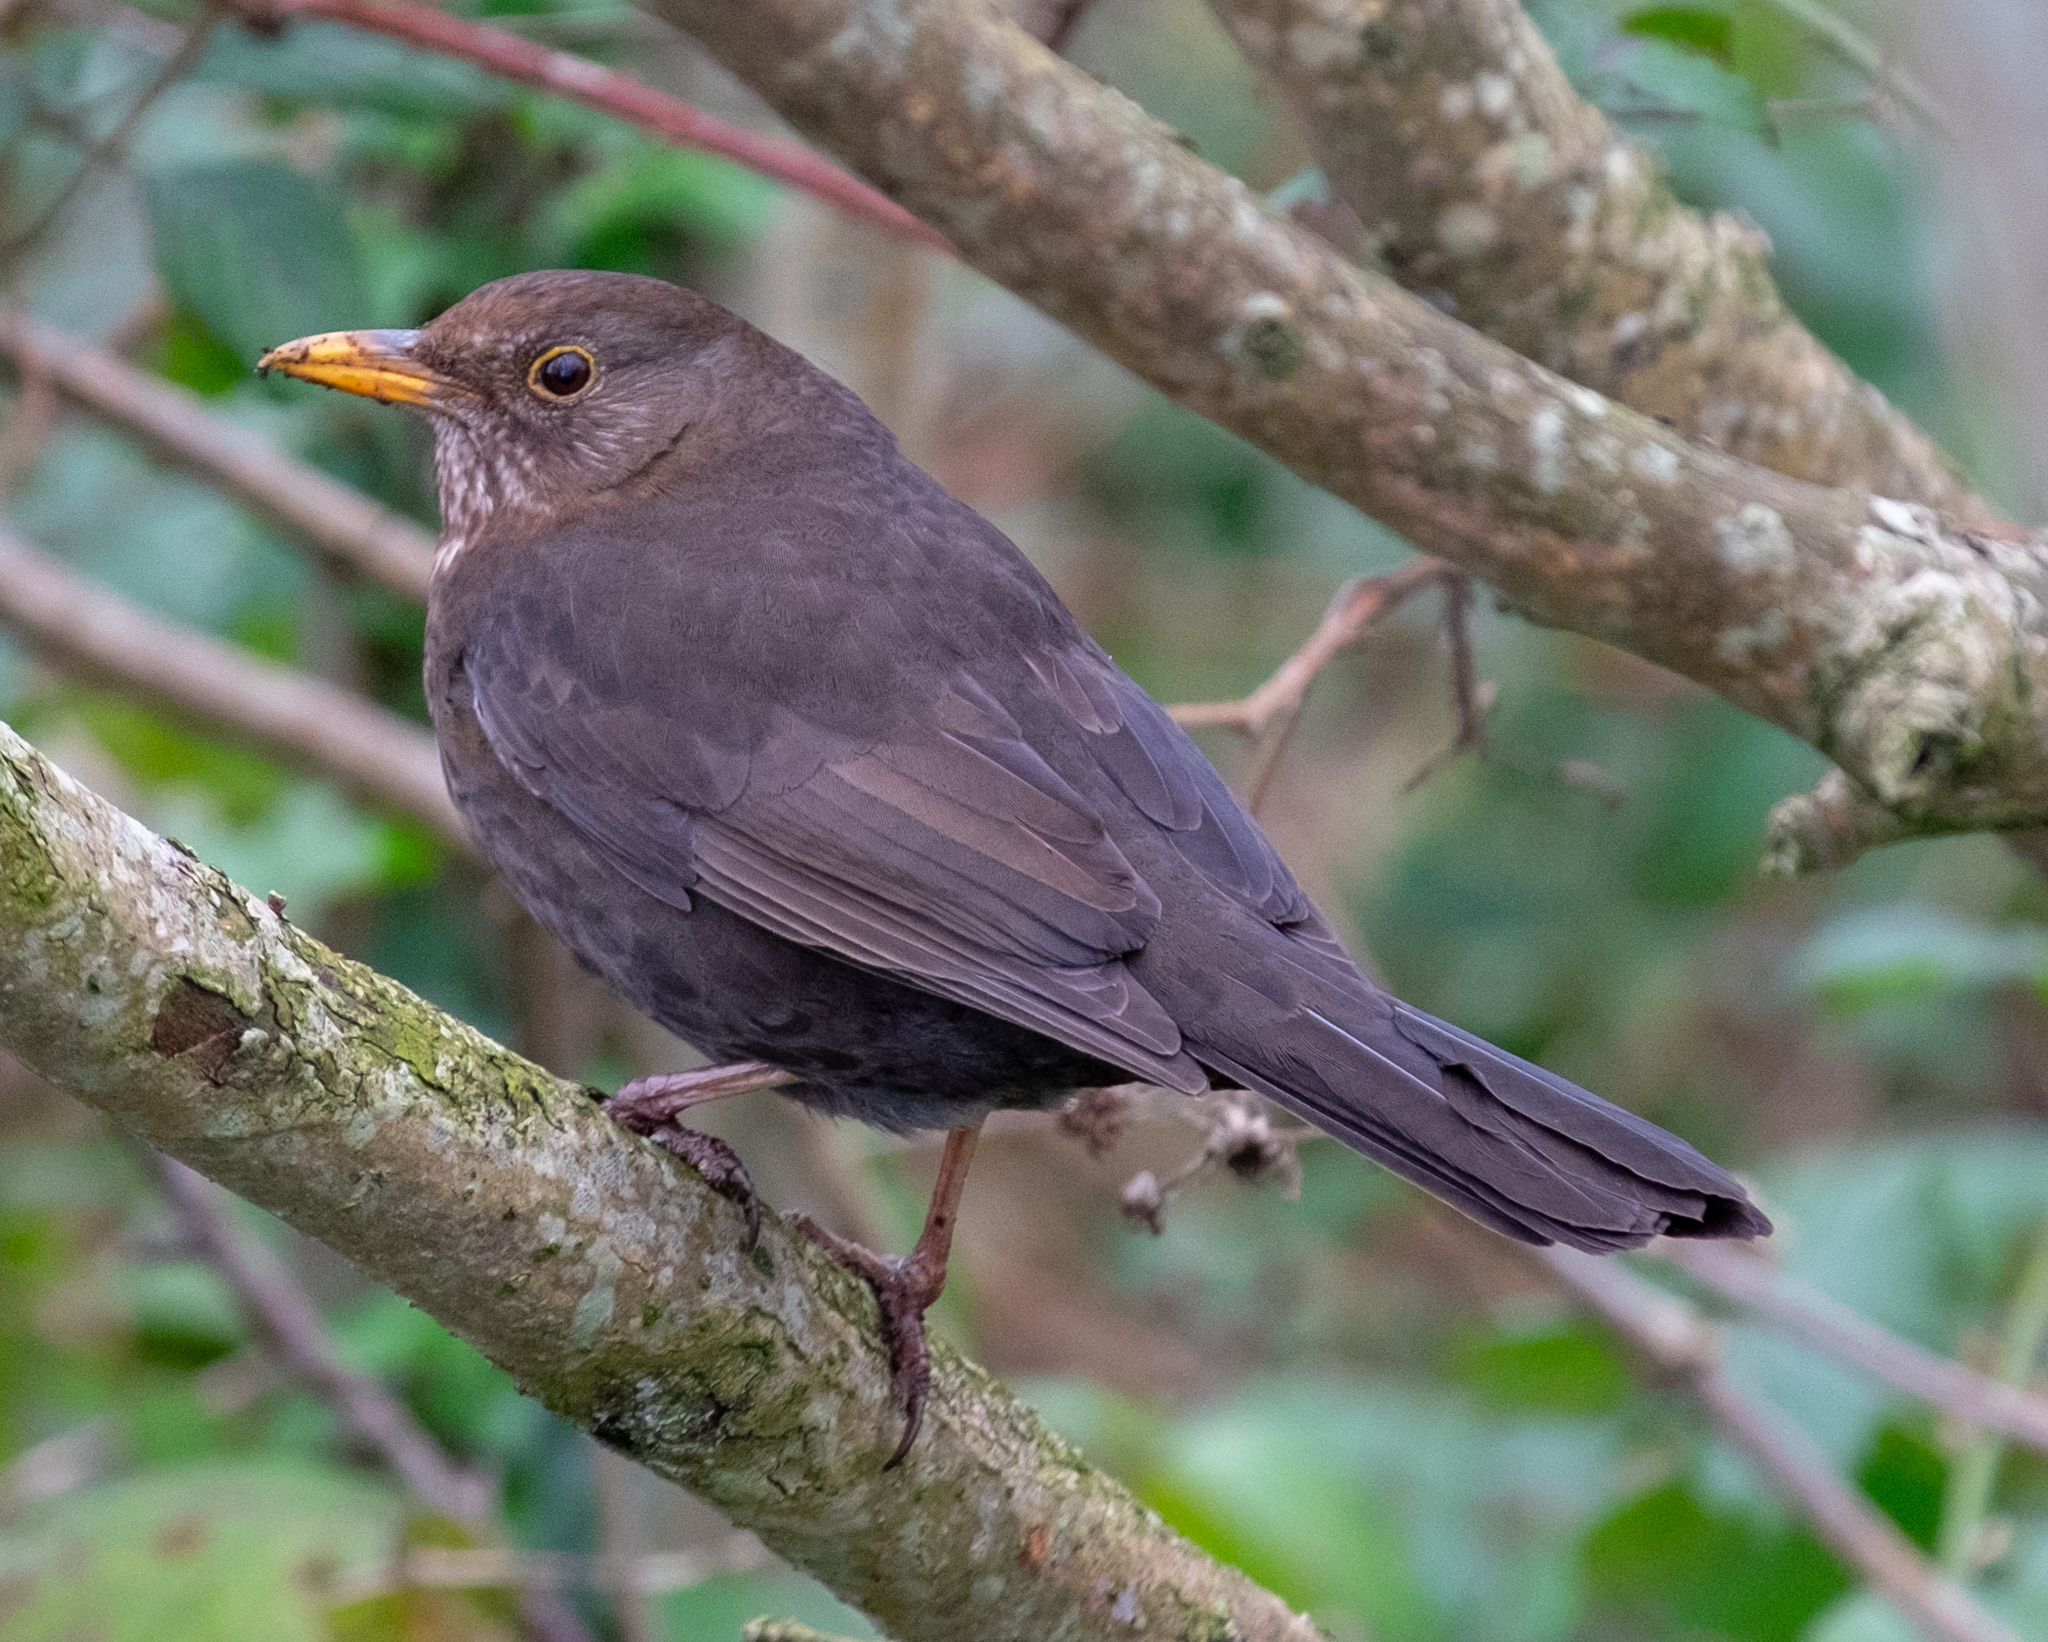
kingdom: Animalia
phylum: Chordata
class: Aves
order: Passeriformes
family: Turdidae
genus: Turdus
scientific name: Turdus merula
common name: Common blackbird
